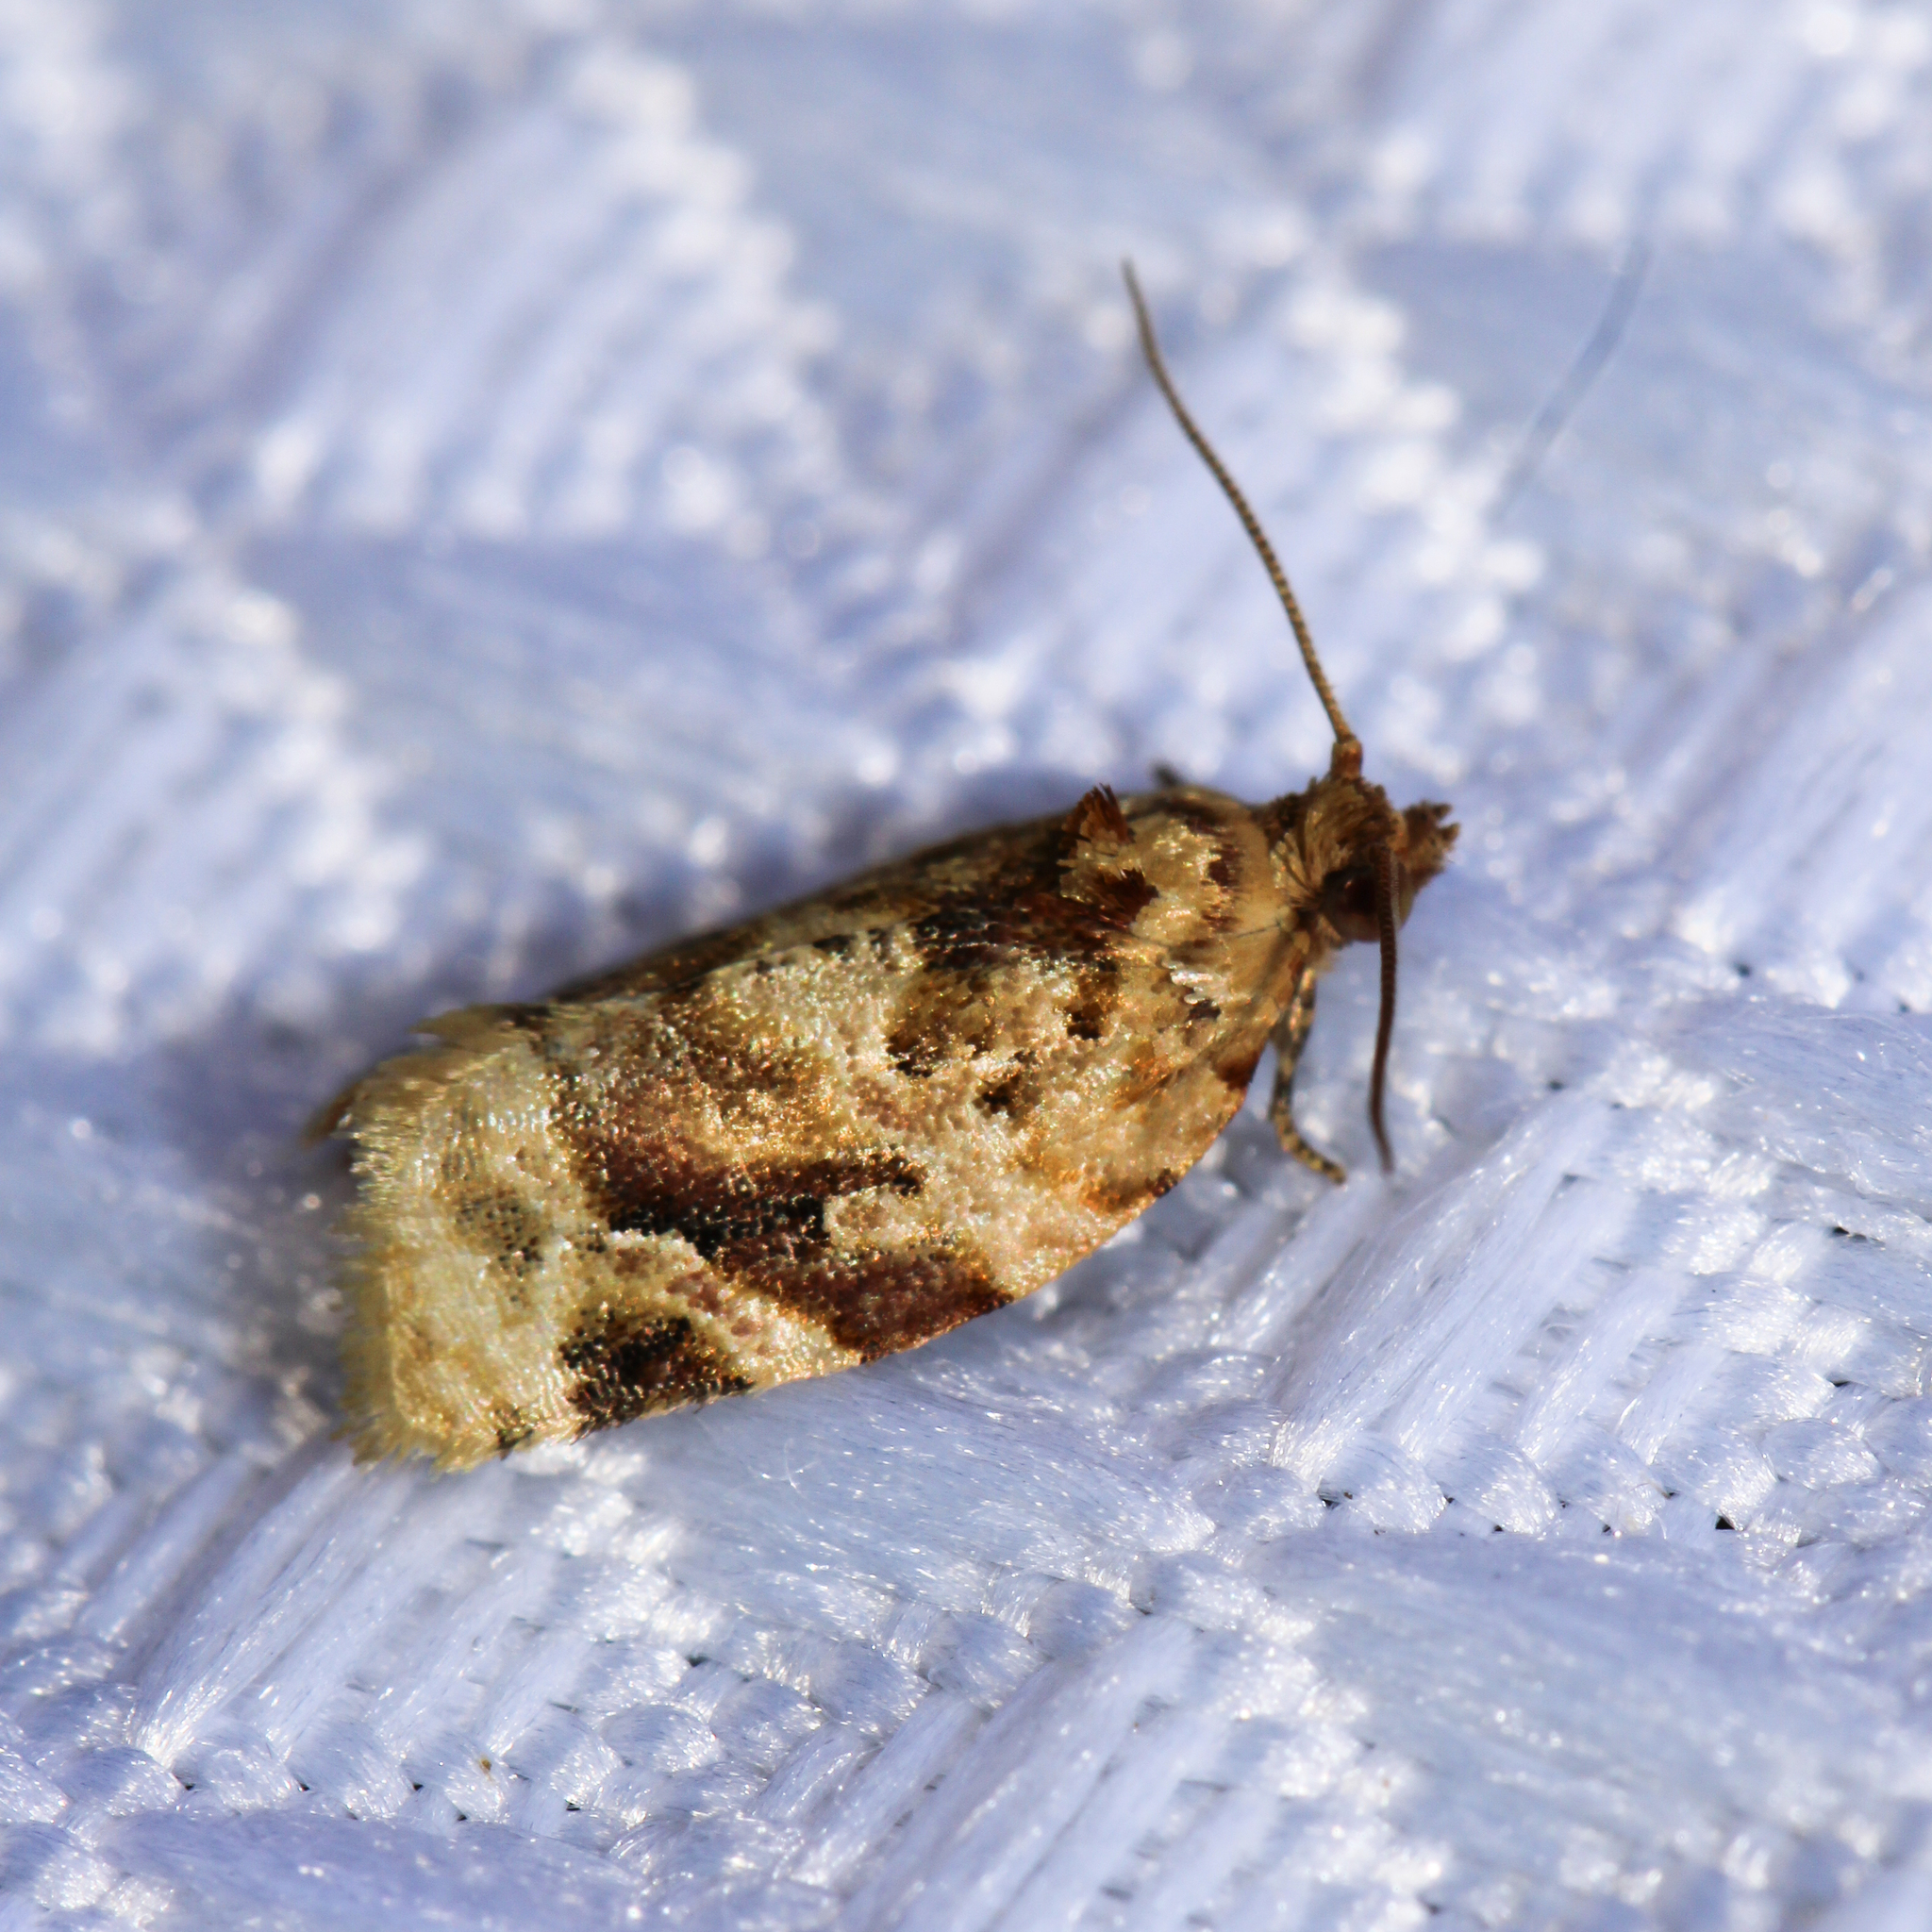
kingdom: Animalia
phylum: Arthropoda
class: Insecta
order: Lepidoptera
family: Tortricidae
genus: Argyrotaenia
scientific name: Argyrotaenia velutinana
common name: Red-banded leafroller moth
